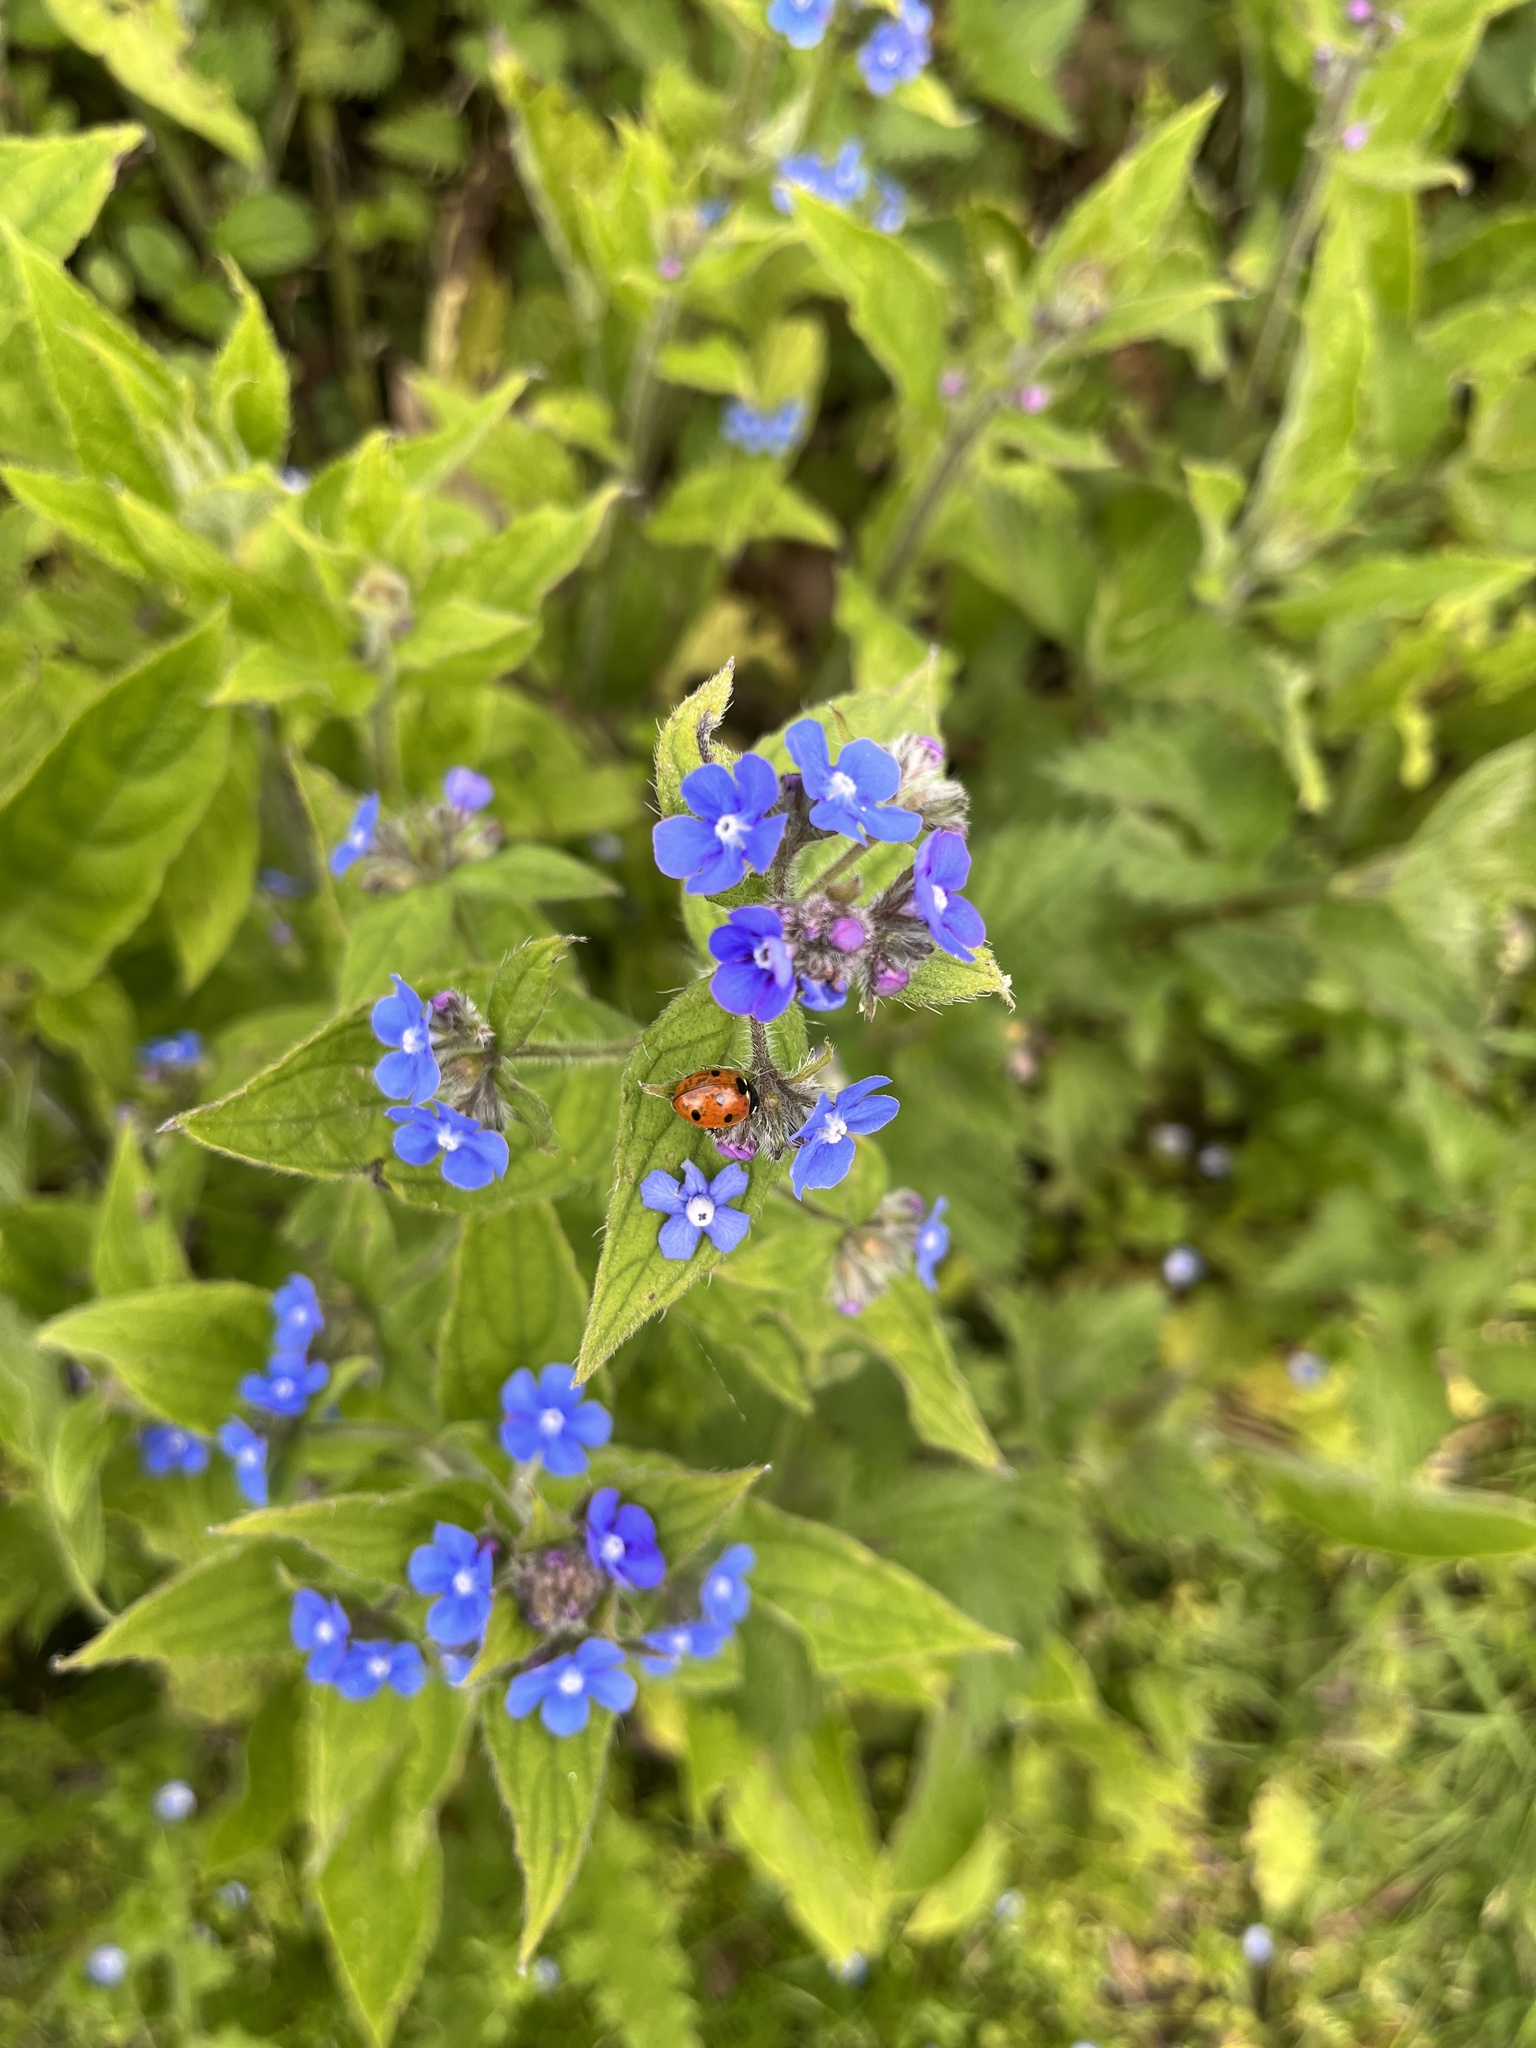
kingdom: Plantae
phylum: Tracheophyta
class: Magnoliopsida
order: Boraginales
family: Boraginaceae
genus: Pentaglottis
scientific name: Pentaglottis sempervirens
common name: Green alkanet
